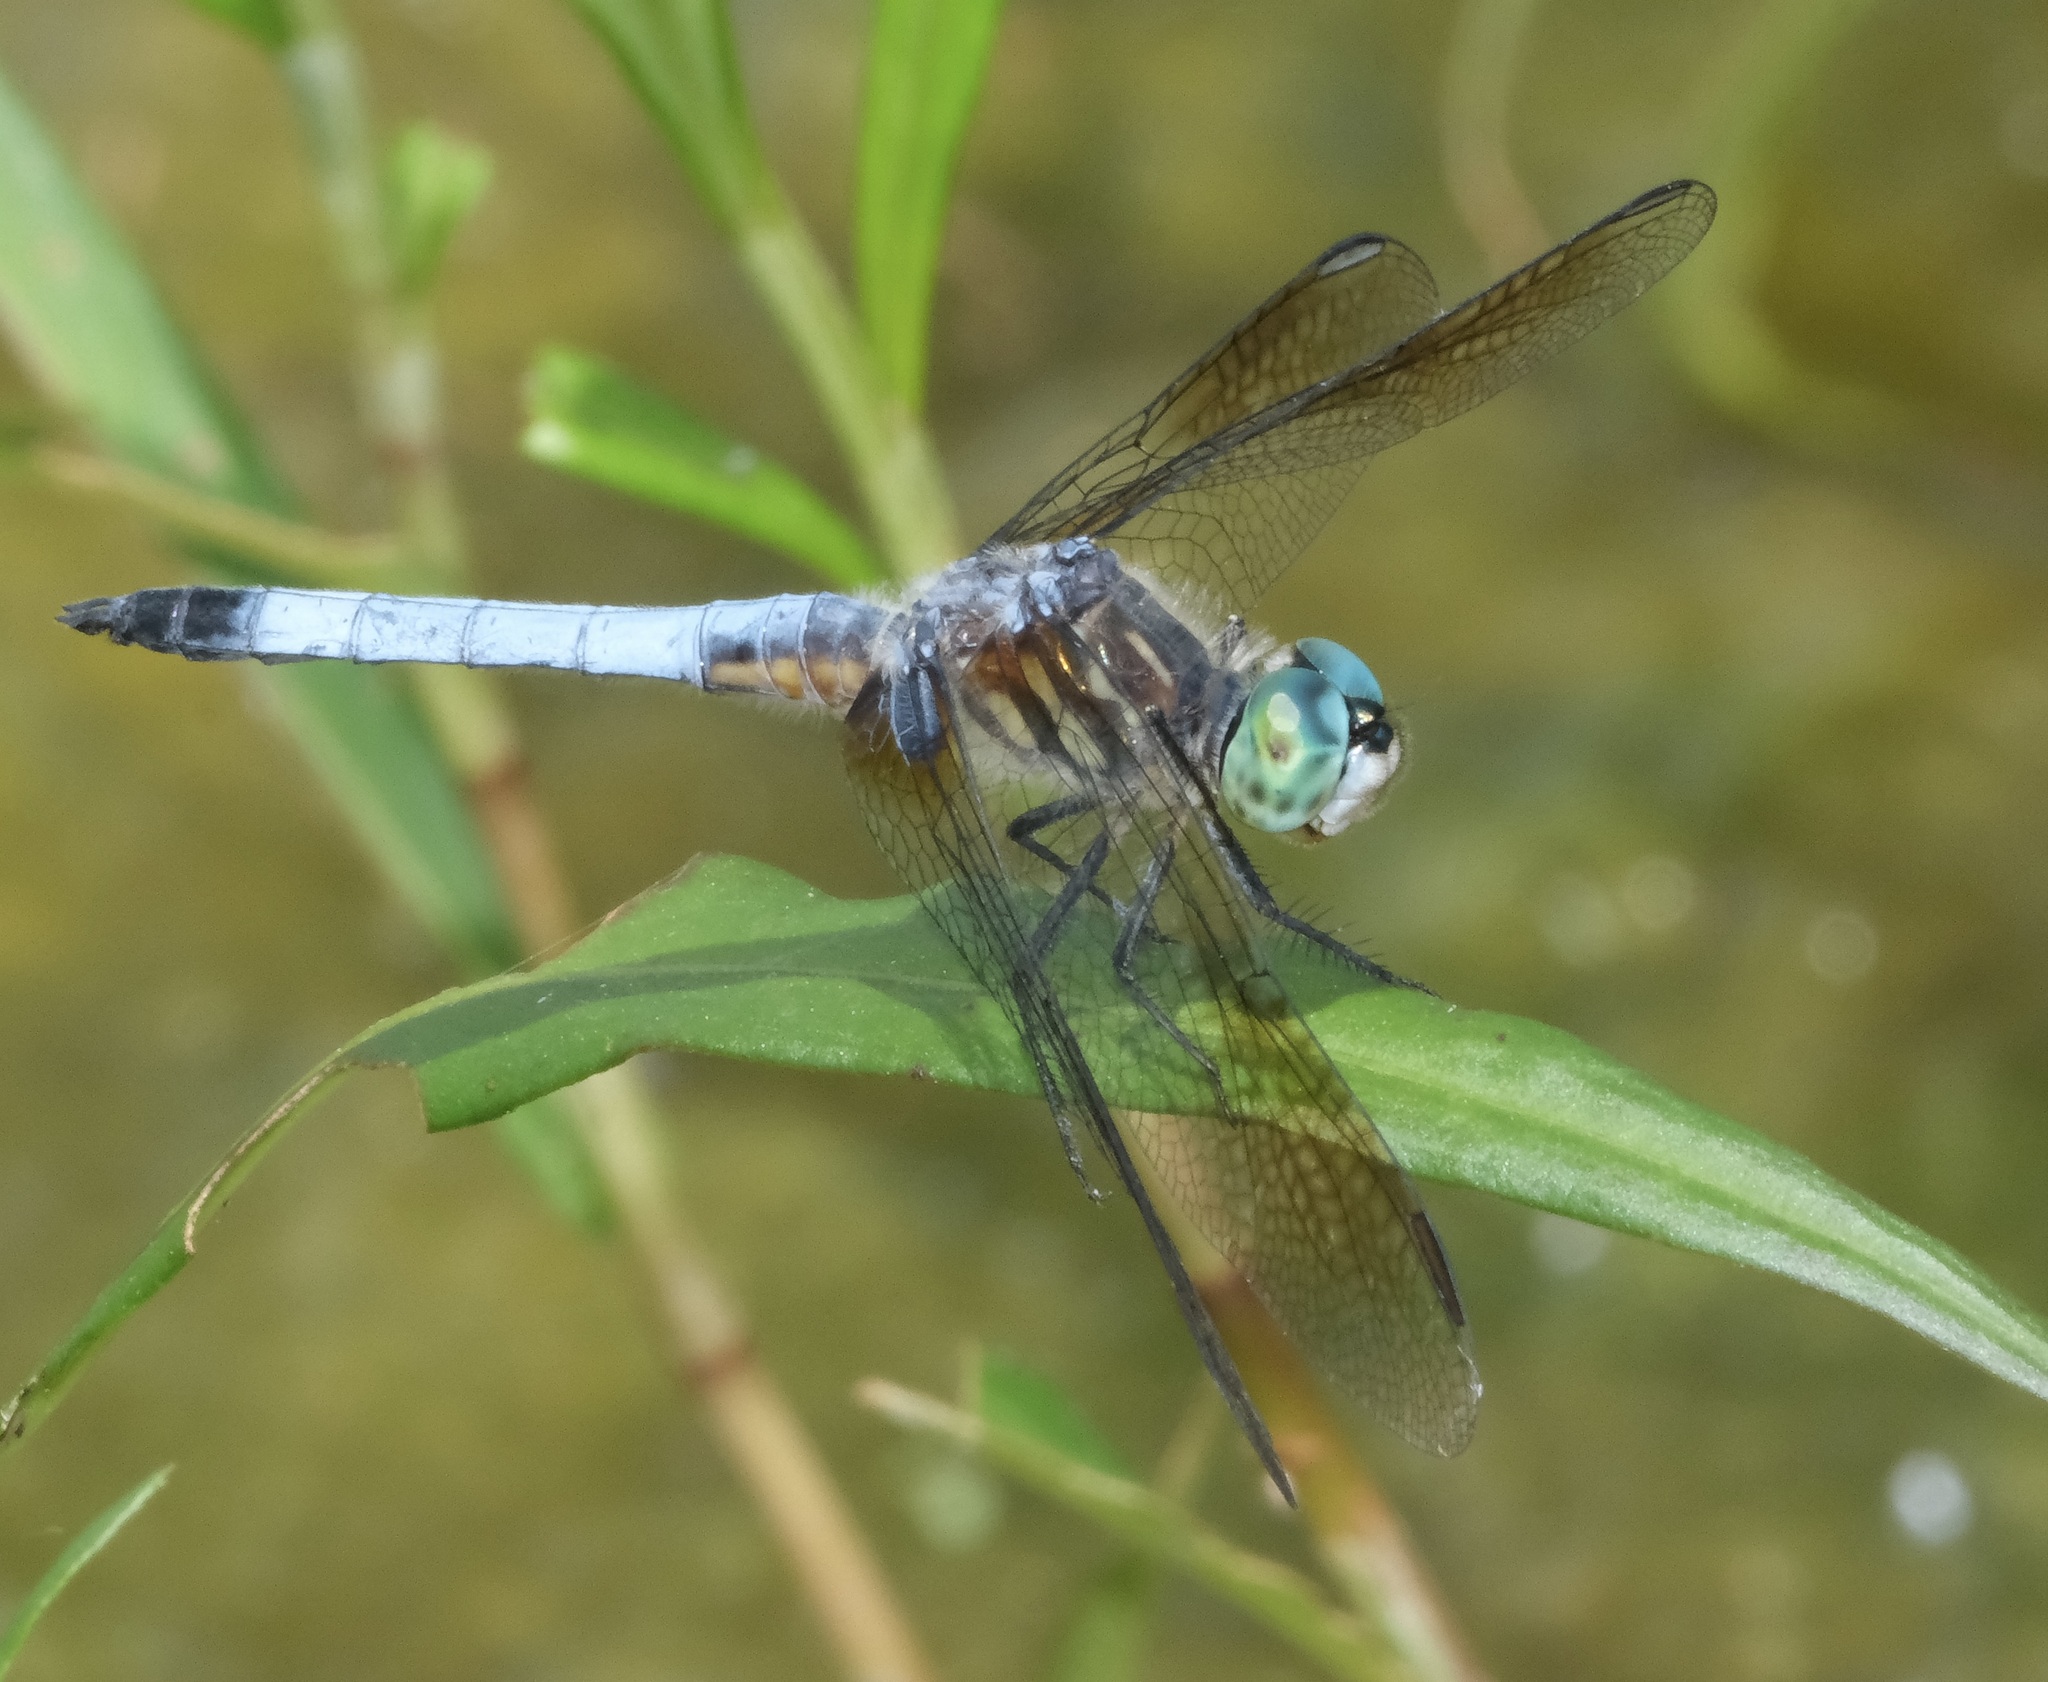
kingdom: Animalia
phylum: Arthropoda
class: Insecta
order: Odonata
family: Libellulidae
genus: Pachydiplax
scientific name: Pachydiplax longipennis
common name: Blue dasher
